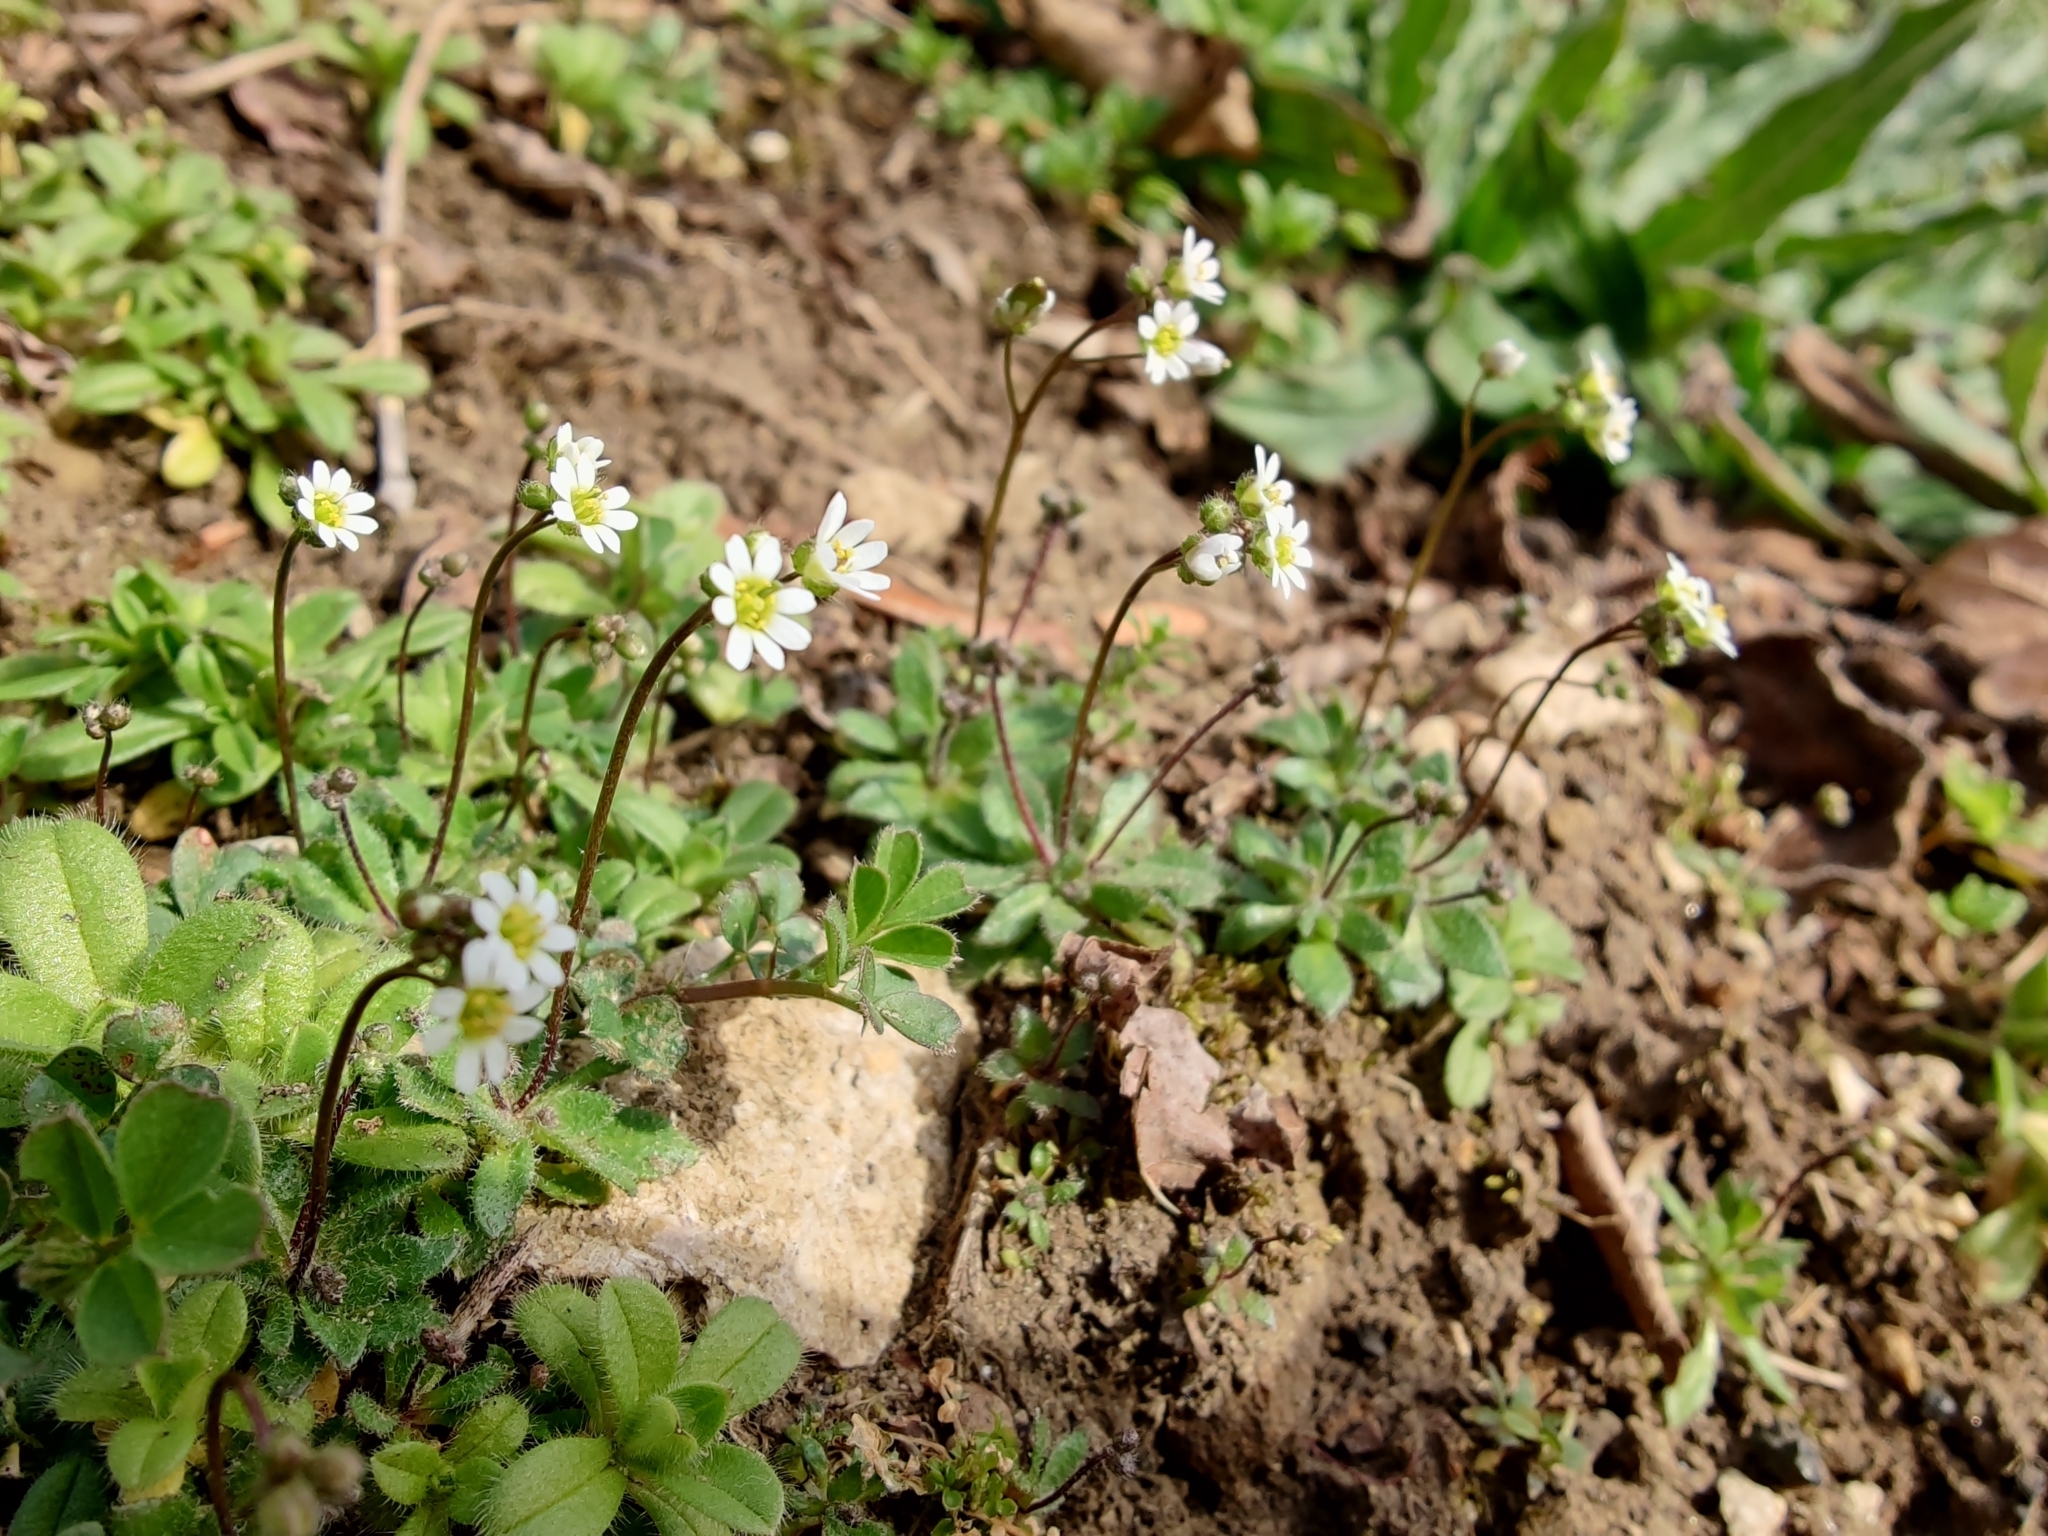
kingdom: Plantae
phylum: Tracheophyta
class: Magnoliopsida
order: Brassicales
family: Brassicaceae
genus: Draba
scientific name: Draba verna
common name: Spring draba
